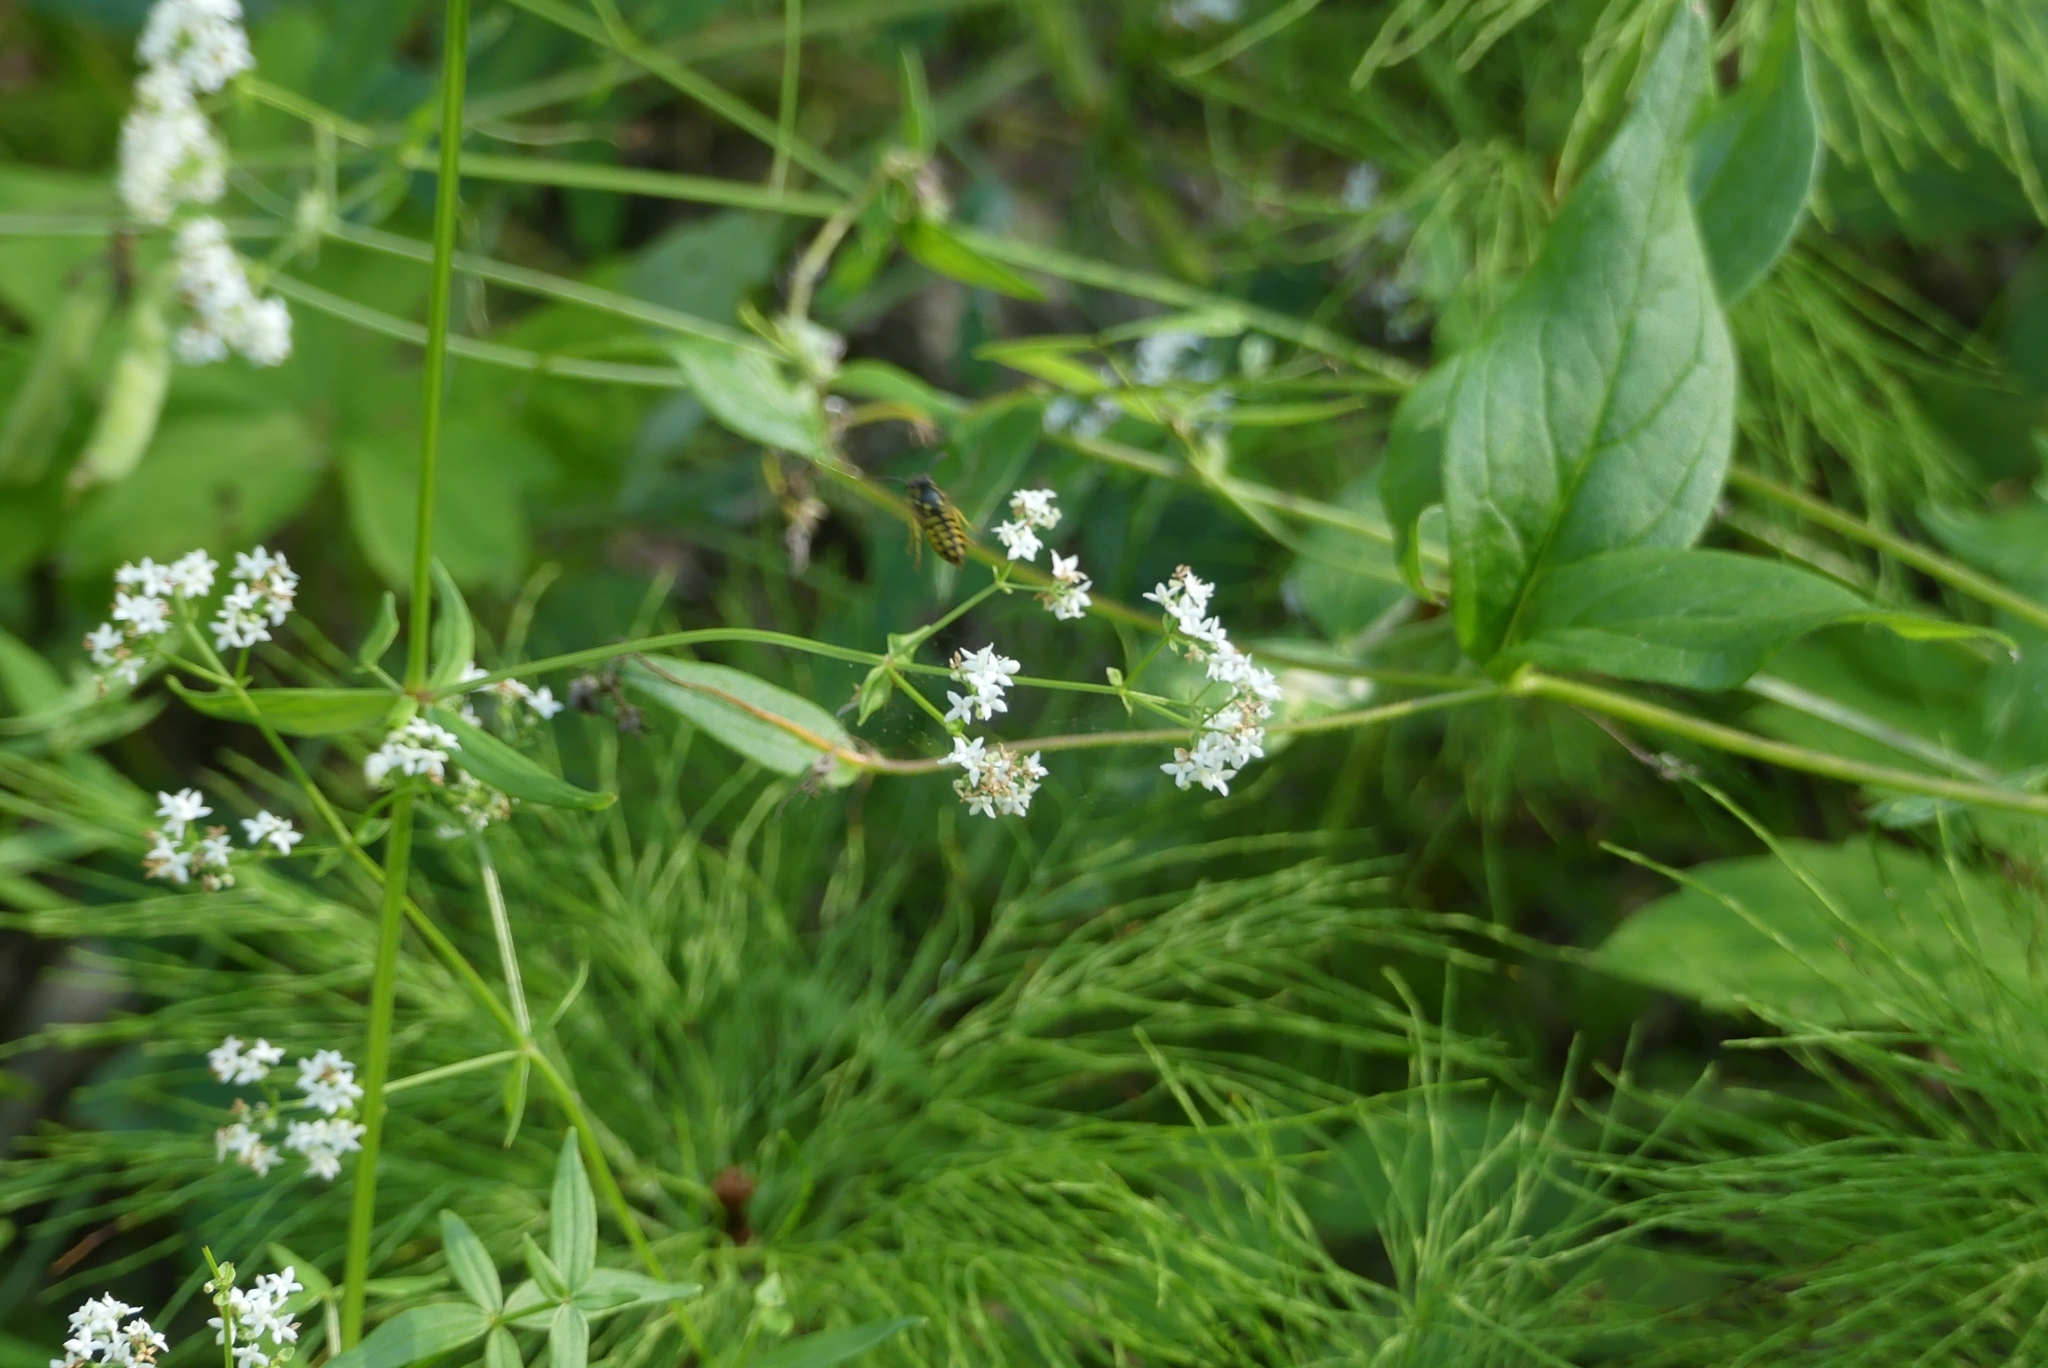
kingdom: Animalia
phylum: Arthropoda
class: Insecta
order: Hymenoptera
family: Vespidae
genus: Dolichovespula
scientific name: Dolichovespula arenaria
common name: Aerial yellowjacket
